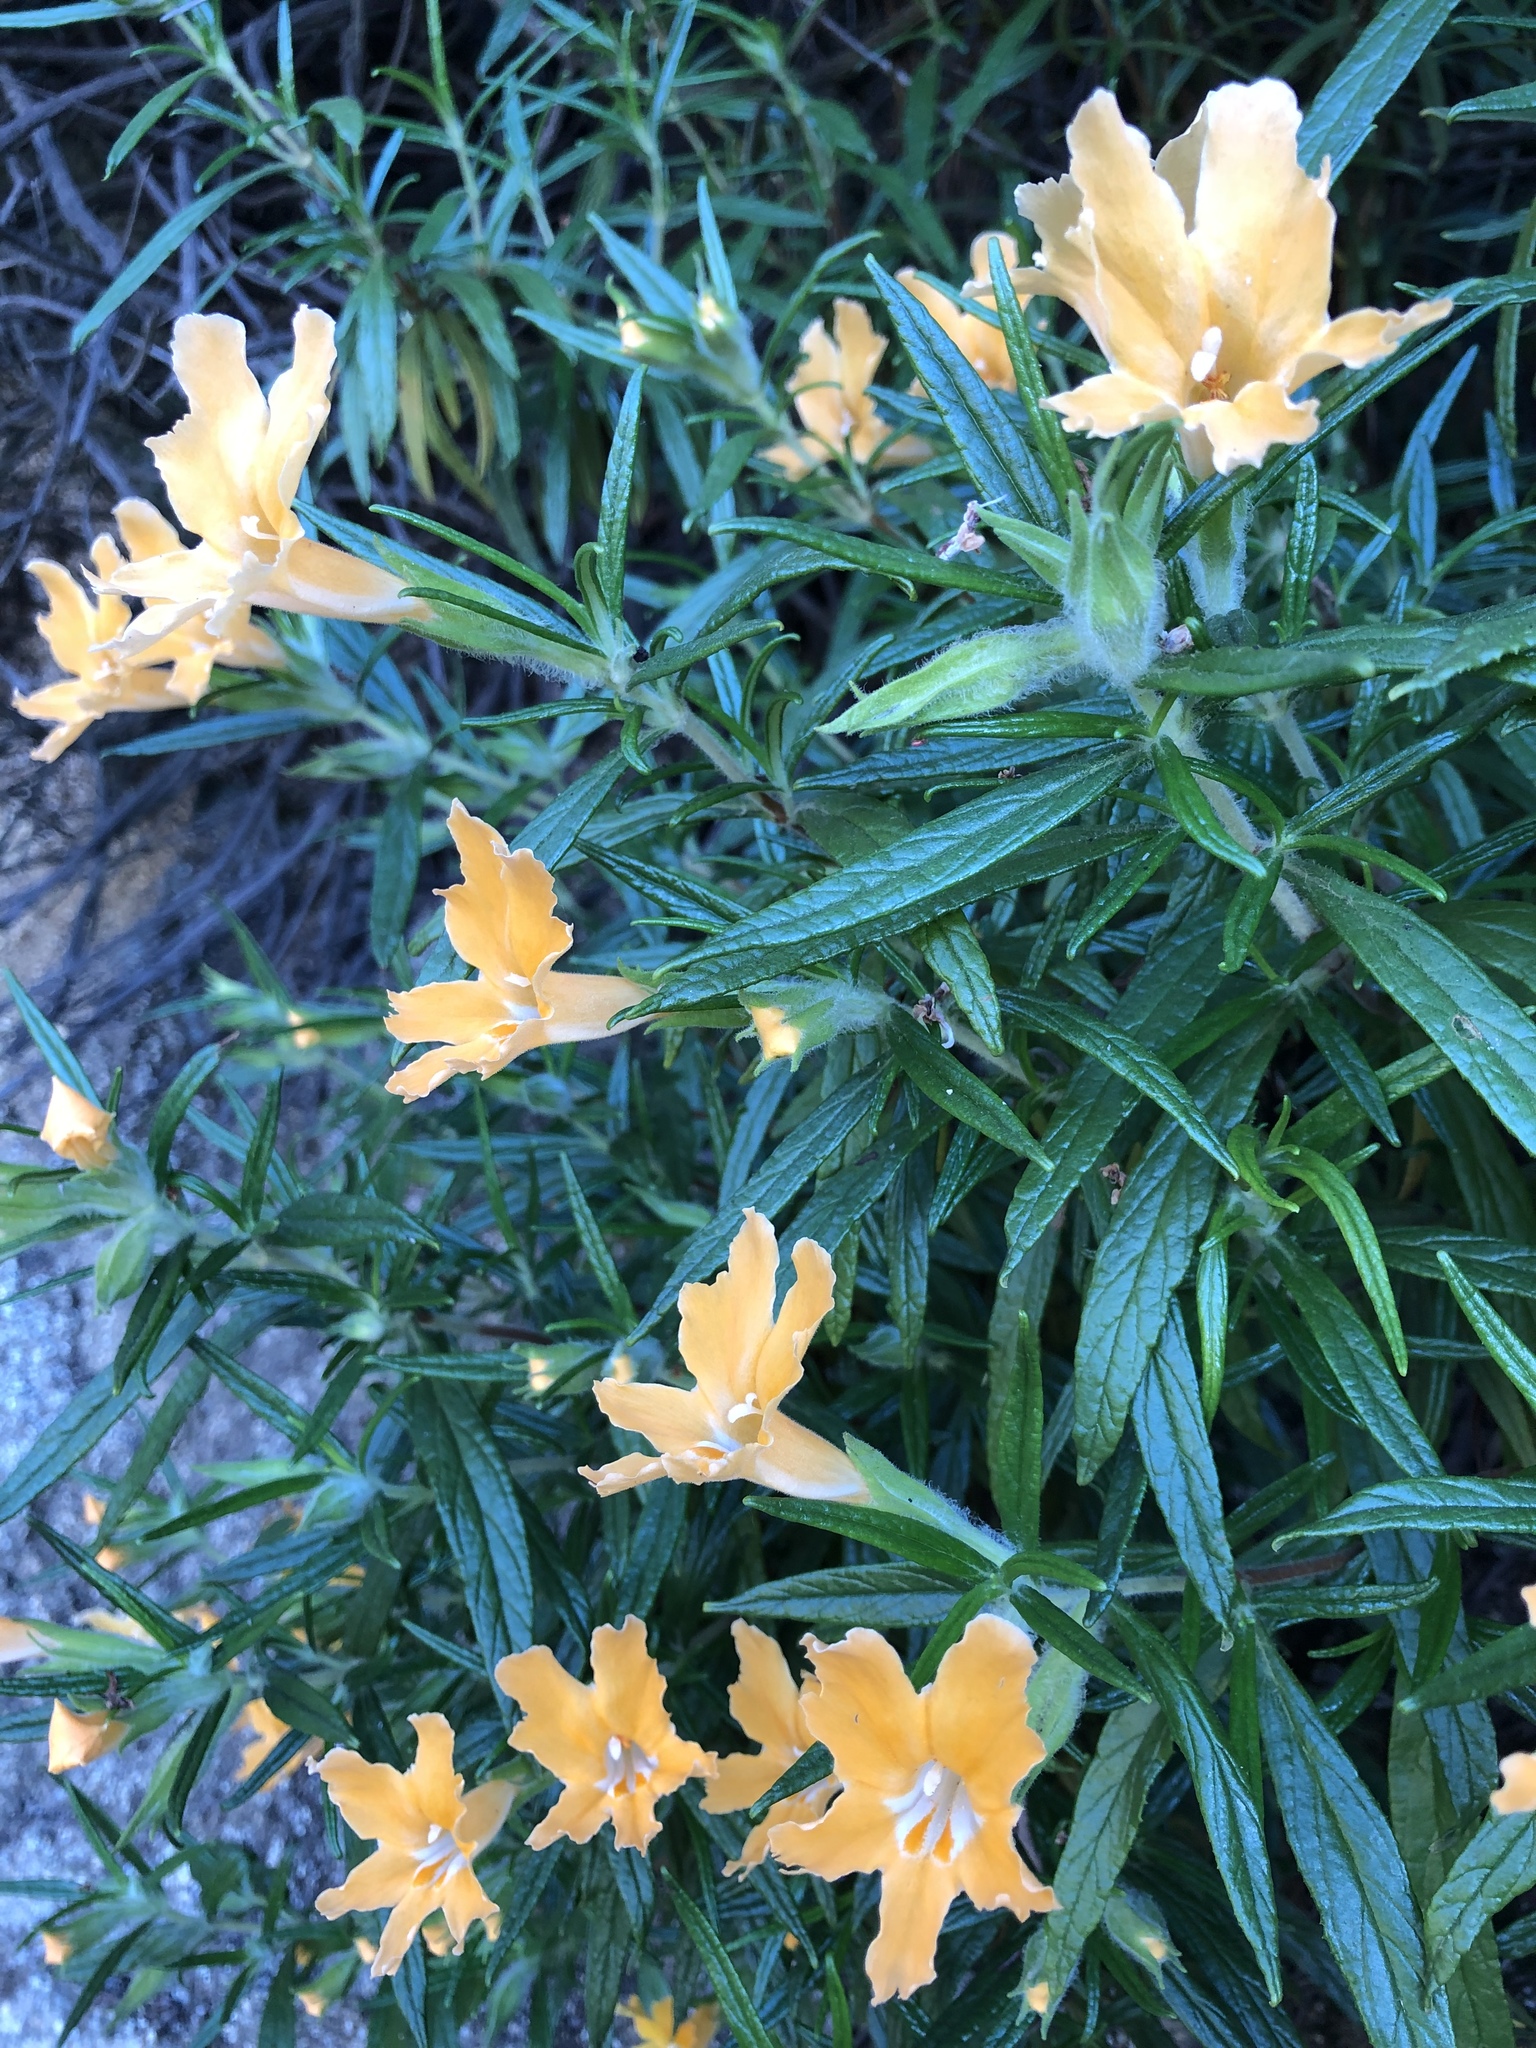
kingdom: Plantae
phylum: Tracheophyta
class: Magnoliopsida
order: Lamiales
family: Phrymaceae
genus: Diplacus
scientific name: Diplacus longiflorus
